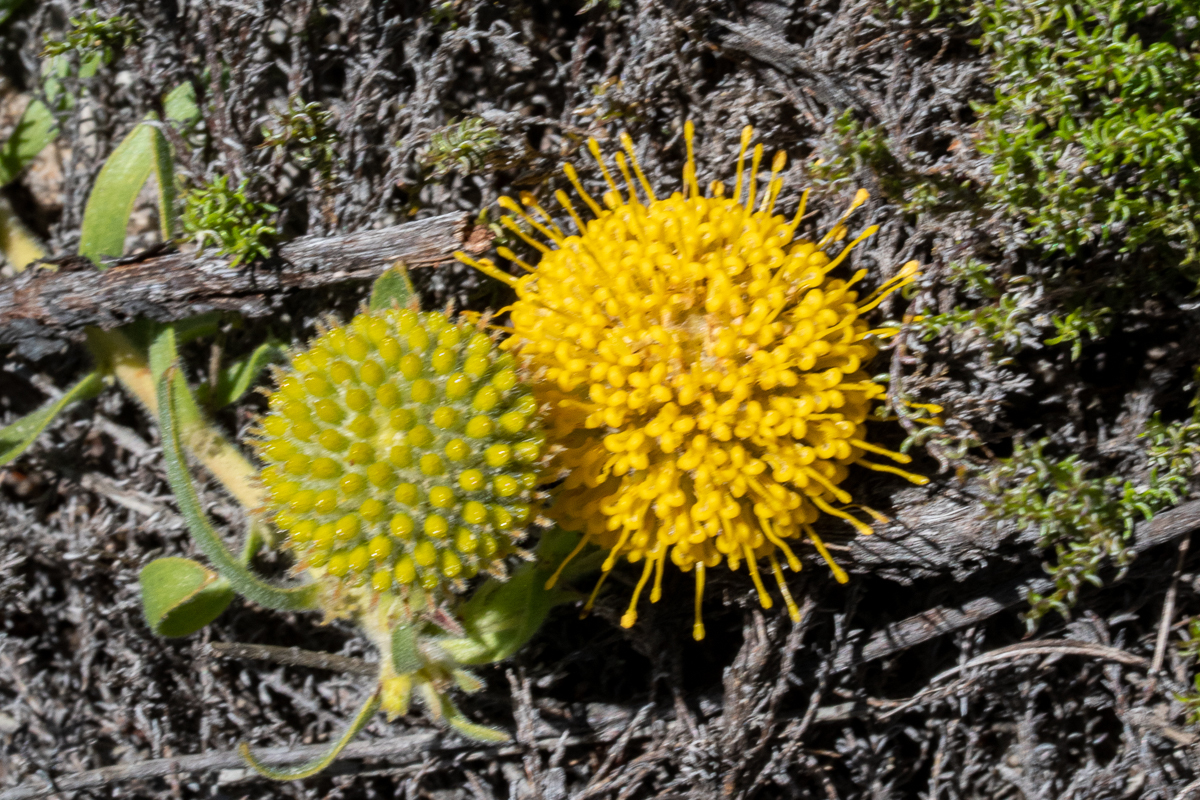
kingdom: Plantae
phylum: Tracheophyta
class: Magnoliopsida
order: Proteales
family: Proteaceae
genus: Leucospermum
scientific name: Leucospermum prostratum
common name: Yellow-trailing pincushion
